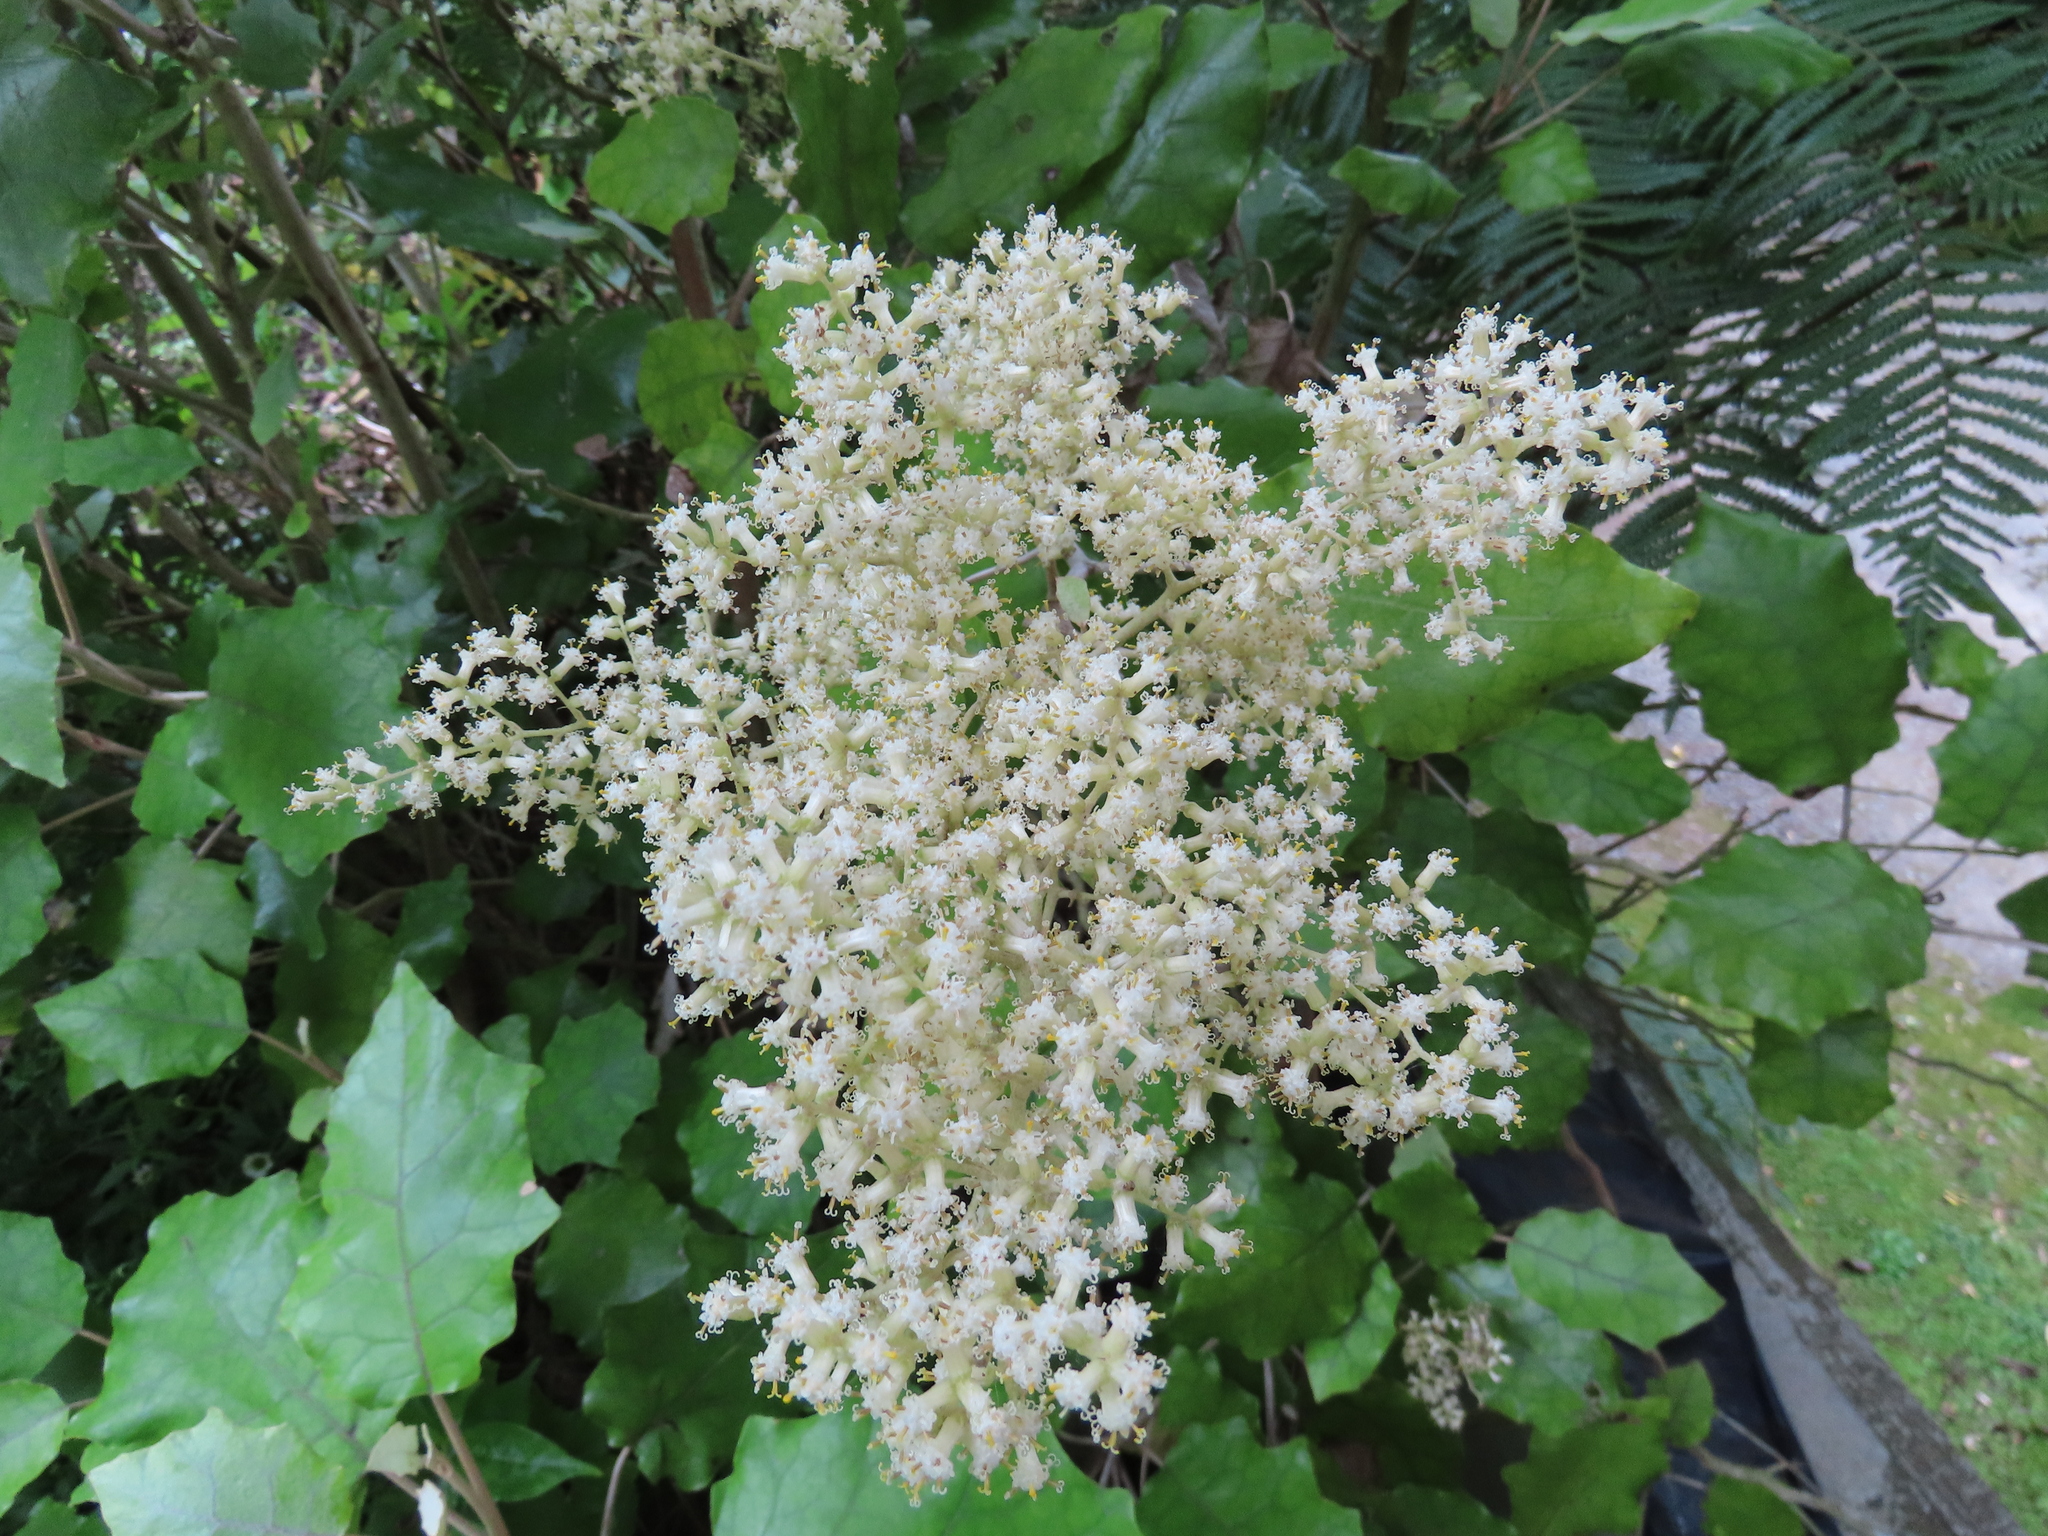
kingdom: Plantae
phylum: Tracheophyta
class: Magnoliopsida
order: Asterales
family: Asteraceae
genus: Brachyglottis
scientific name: Brachyglottis repanda
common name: Hedge ragwort
